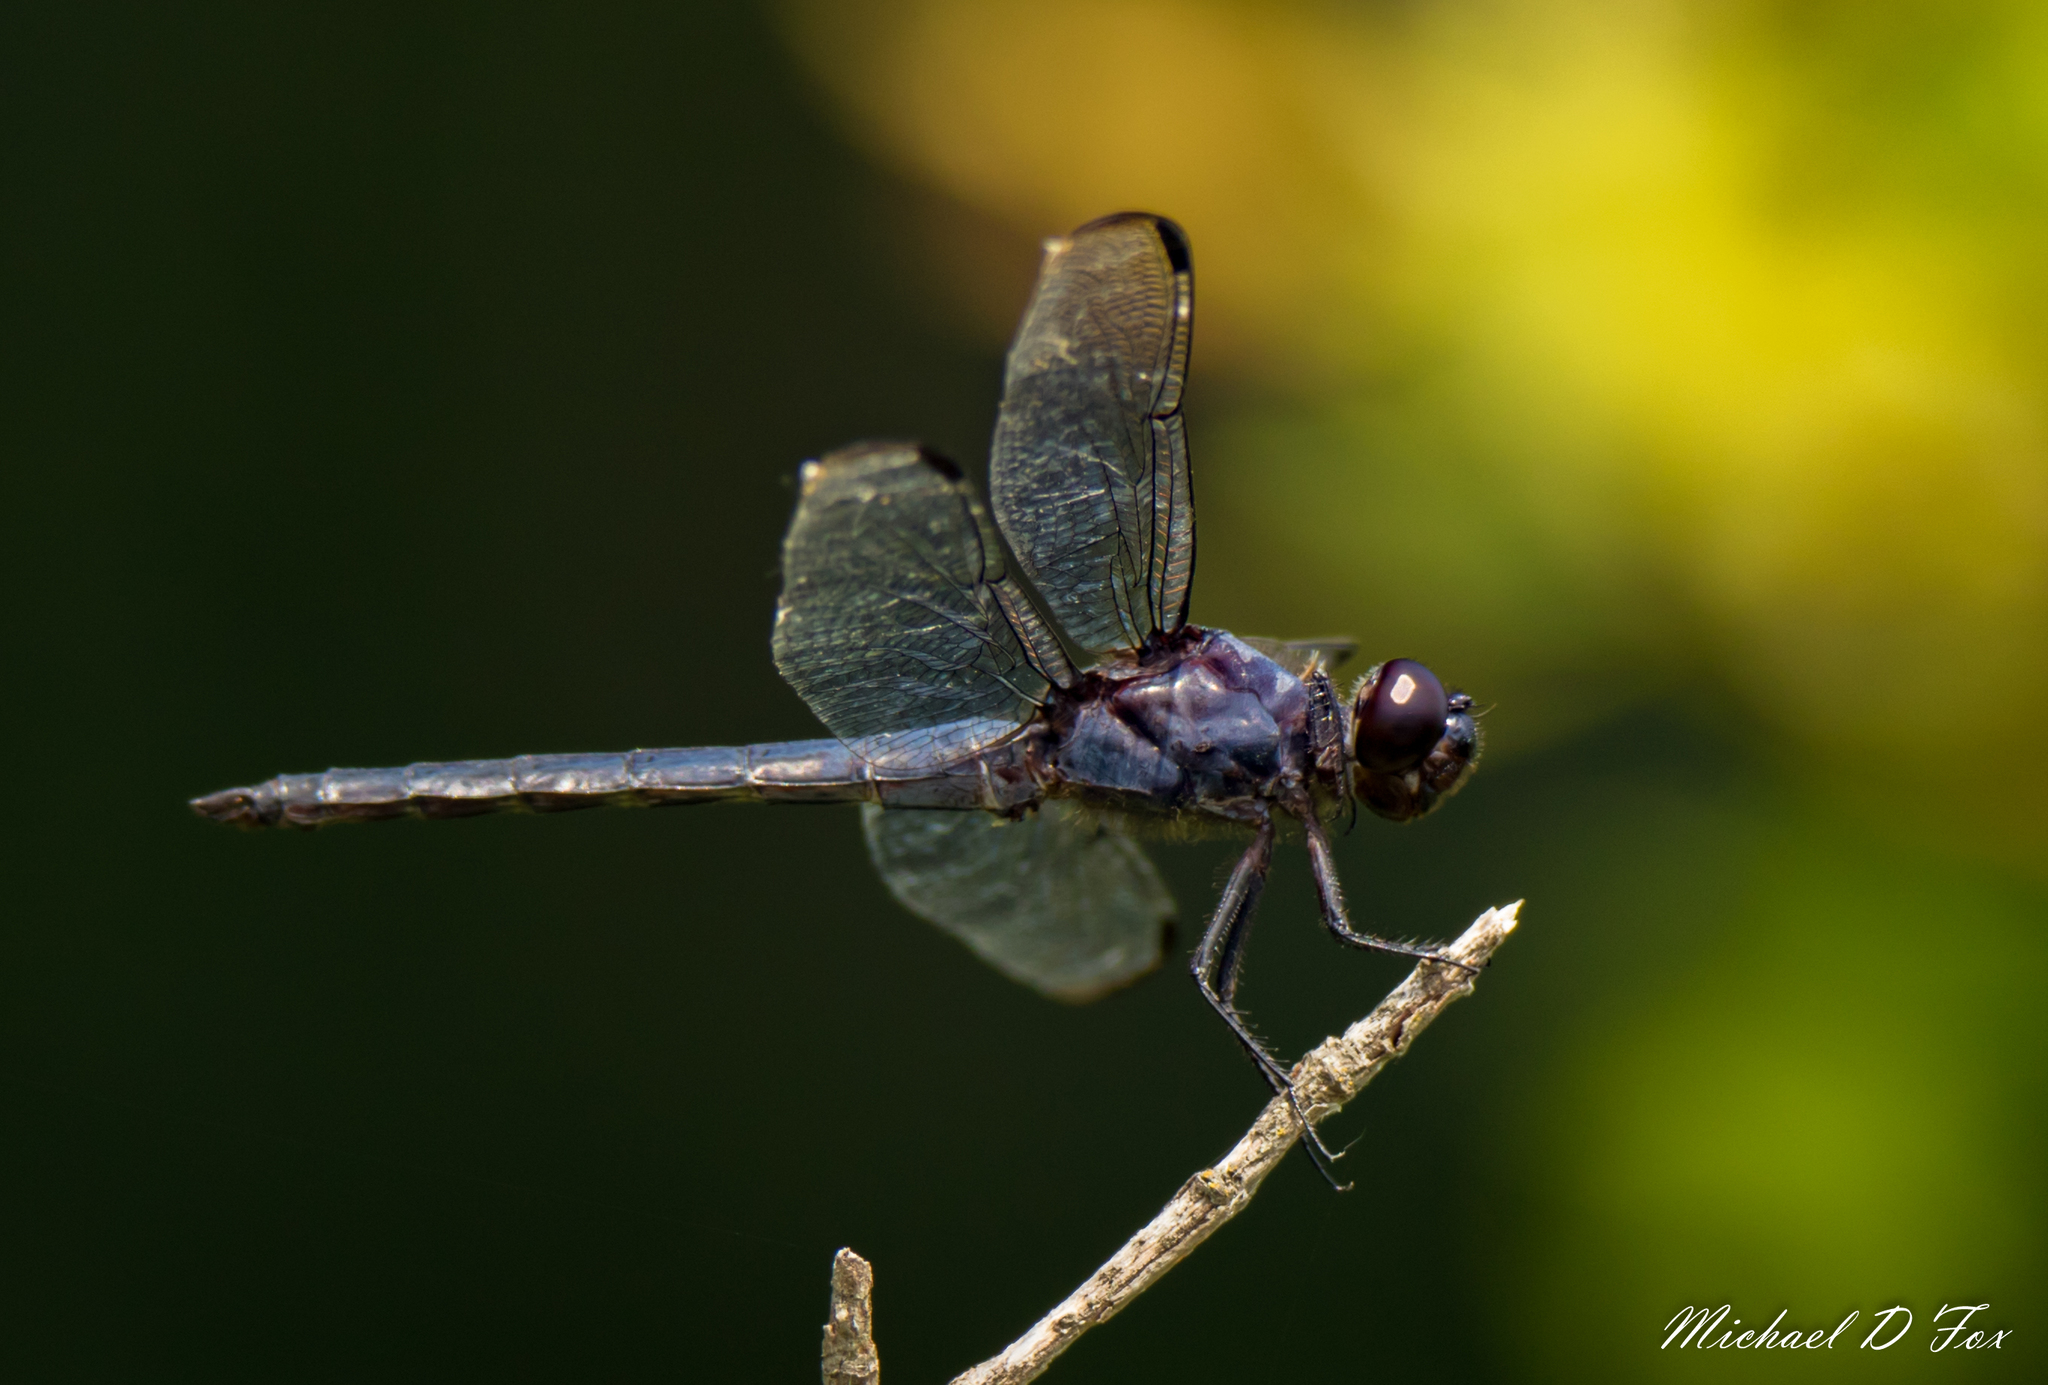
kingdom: Animalia
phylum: Arthropoda
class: Insecta
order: Odonata
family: Libellulidae
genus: Libellula
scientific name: Libellula incesta
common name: Slaty skimmer
